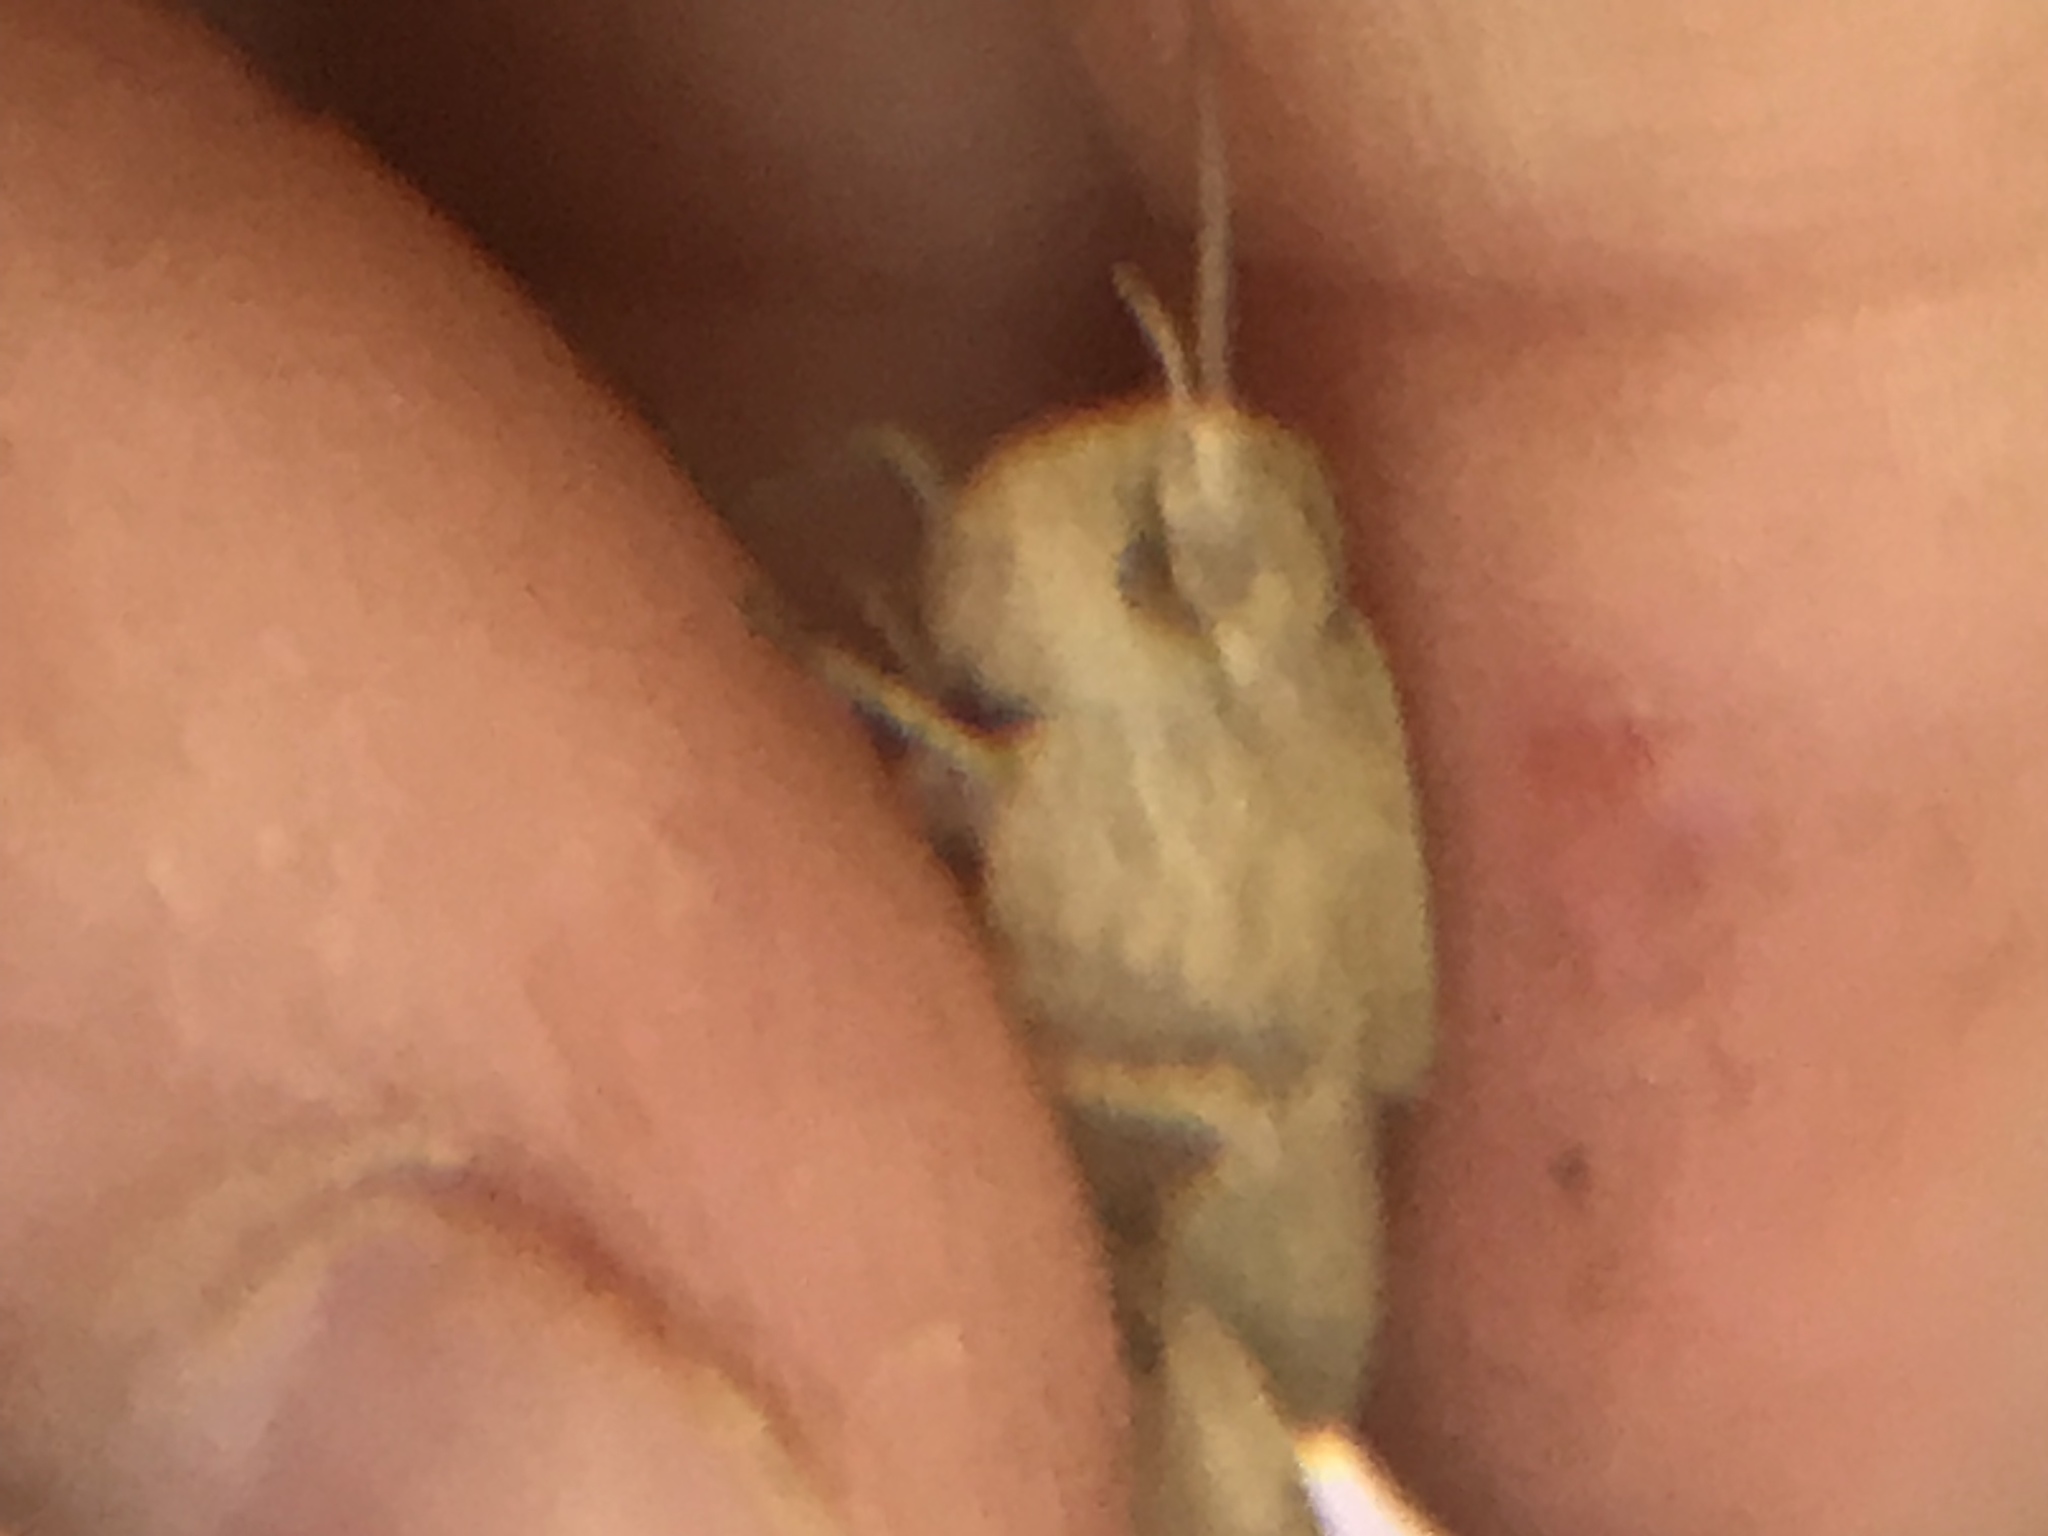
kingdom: Animalia
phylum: Arthropoda
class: Insecta
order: Orthoptera
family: Acrididae
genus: Chortophaga
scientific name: Chortophaga viridifasciata
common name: Green-striped grasshopper
